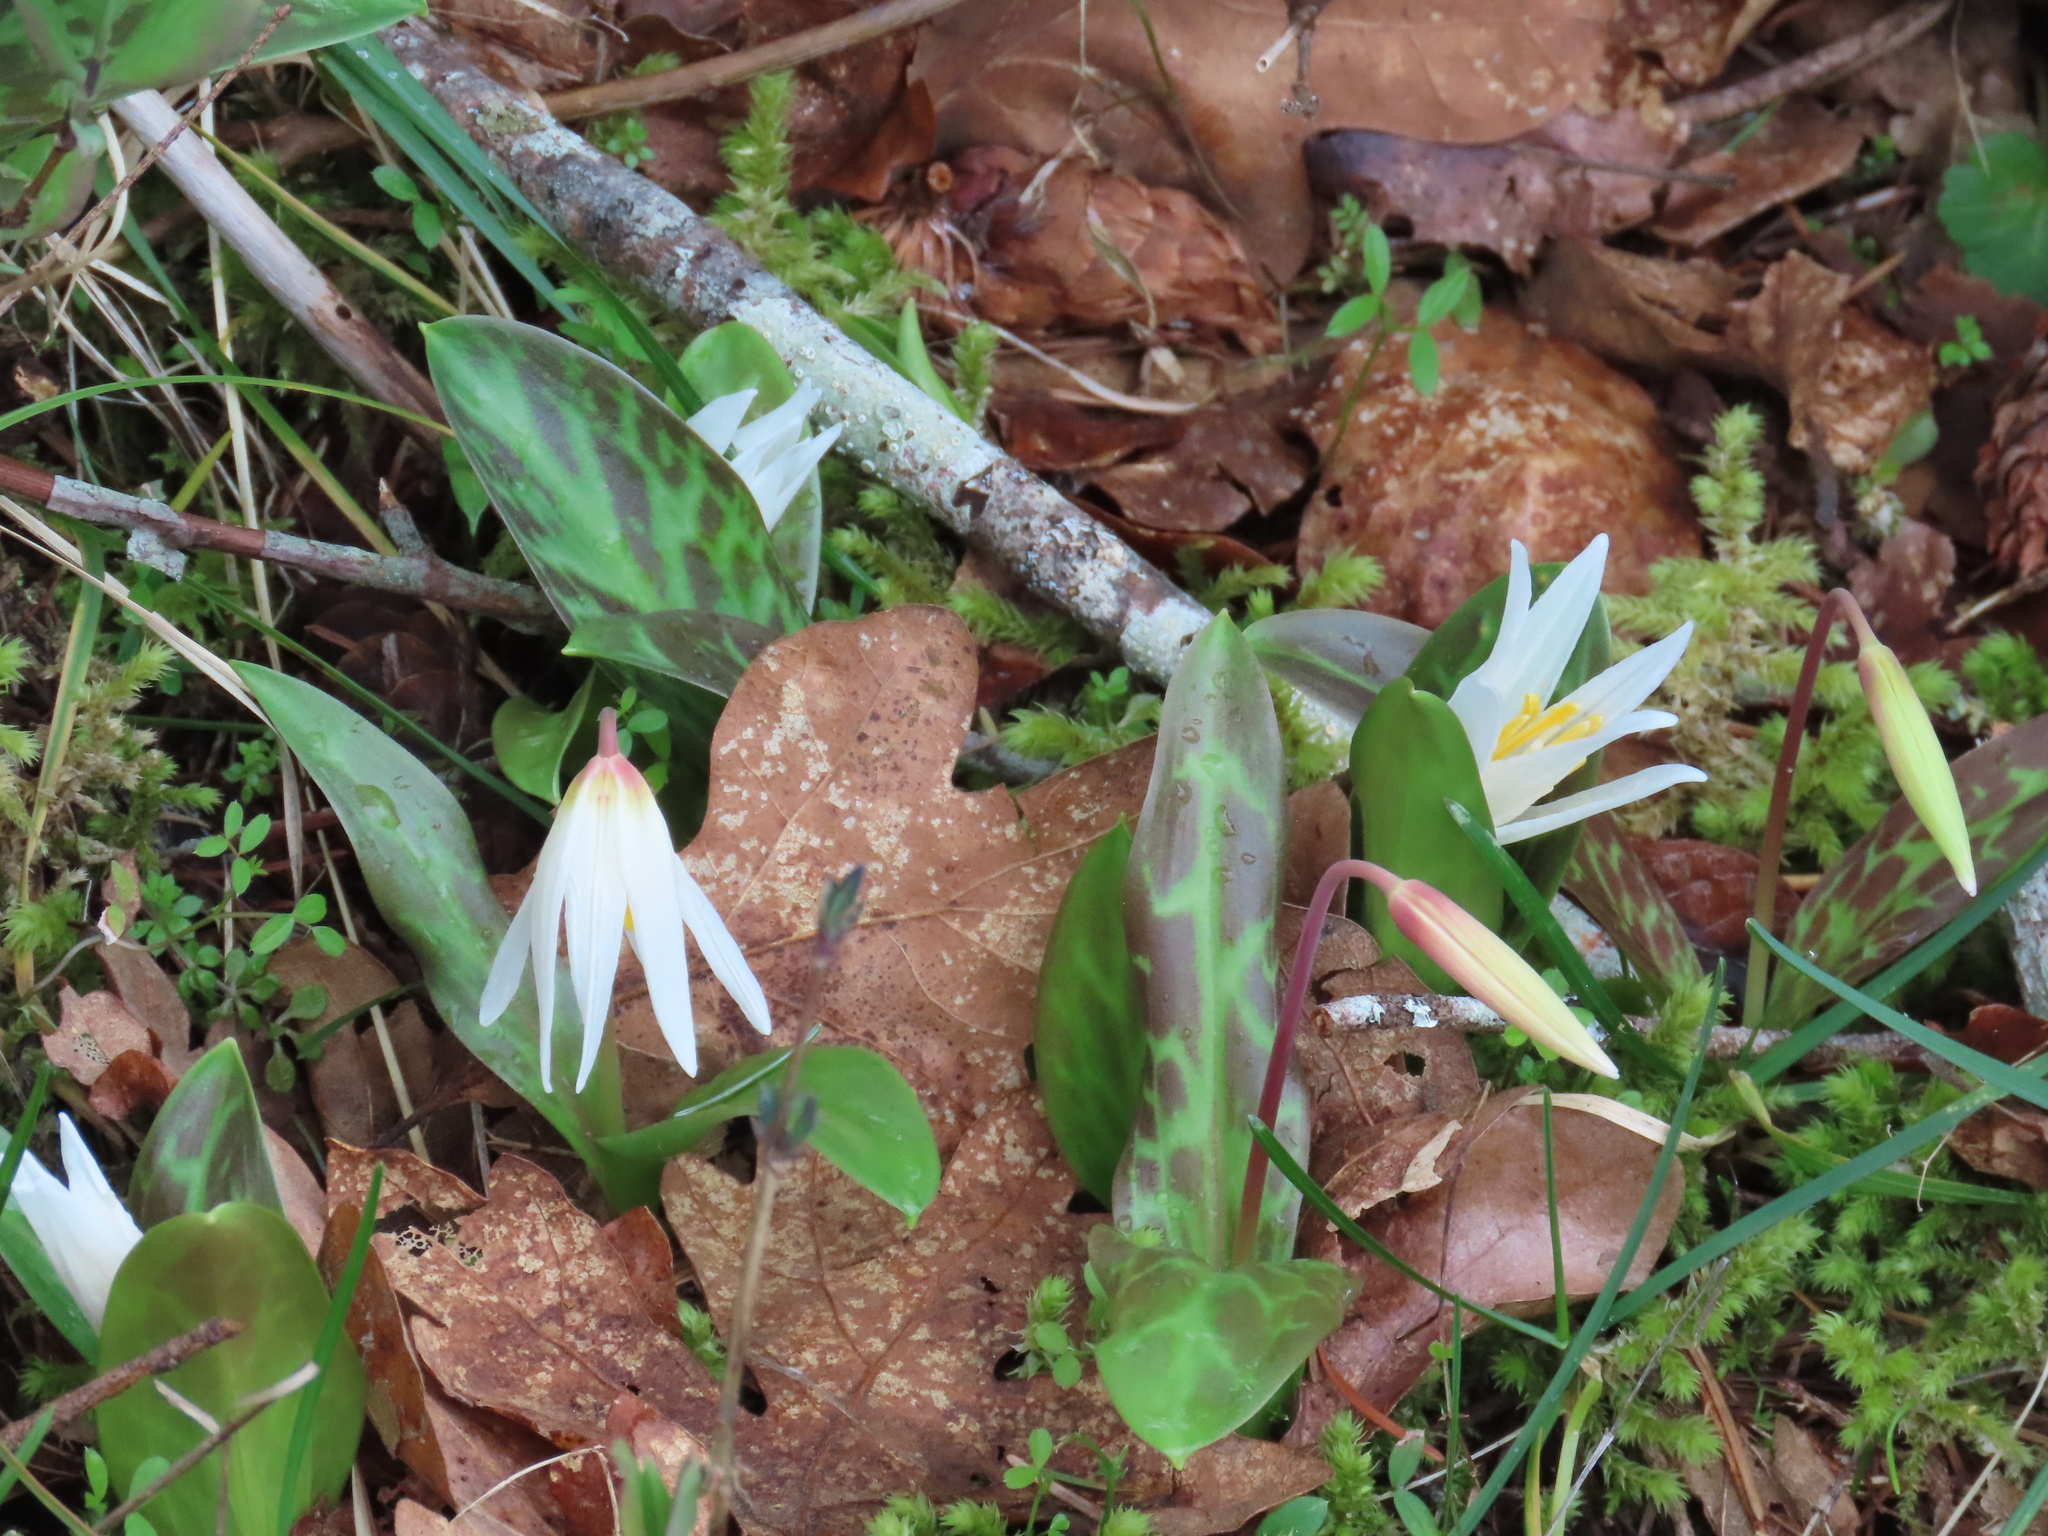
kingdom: Plantae
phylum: Tracheophyta
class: Liliopsida
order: Liliales
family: Liliaceae
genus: Erythronium
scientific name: Erythronium oregonum
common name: Giant adder's-tongue
